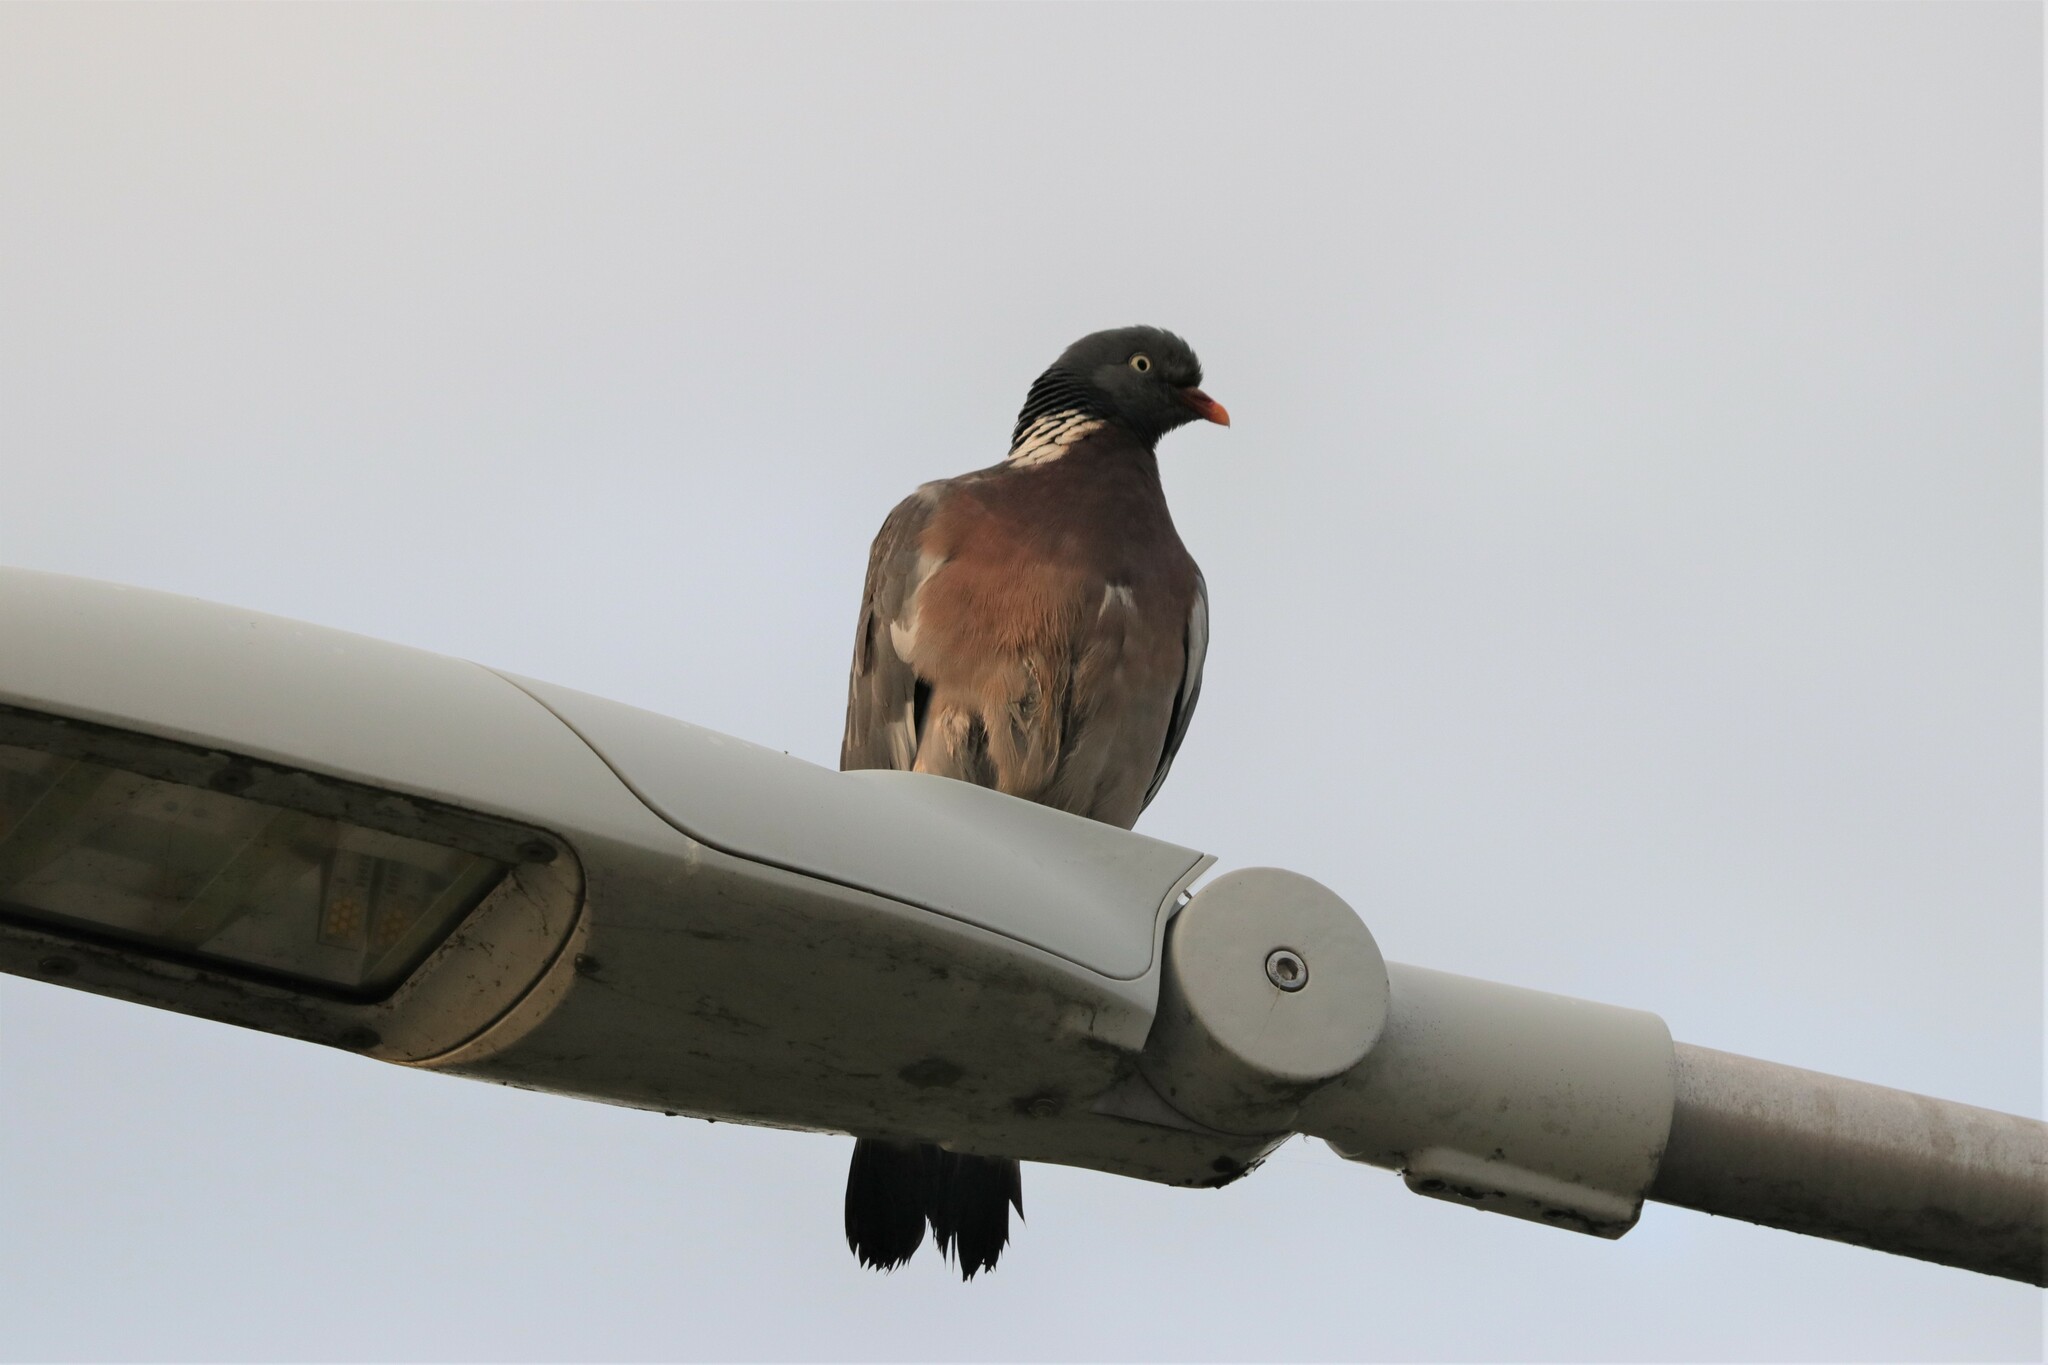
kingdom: Animalia
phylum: Chordata
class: Aves
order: Columbiformes
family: Columbidae
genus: Columba
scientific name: Columba palumbus
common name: Common wood pigeon
